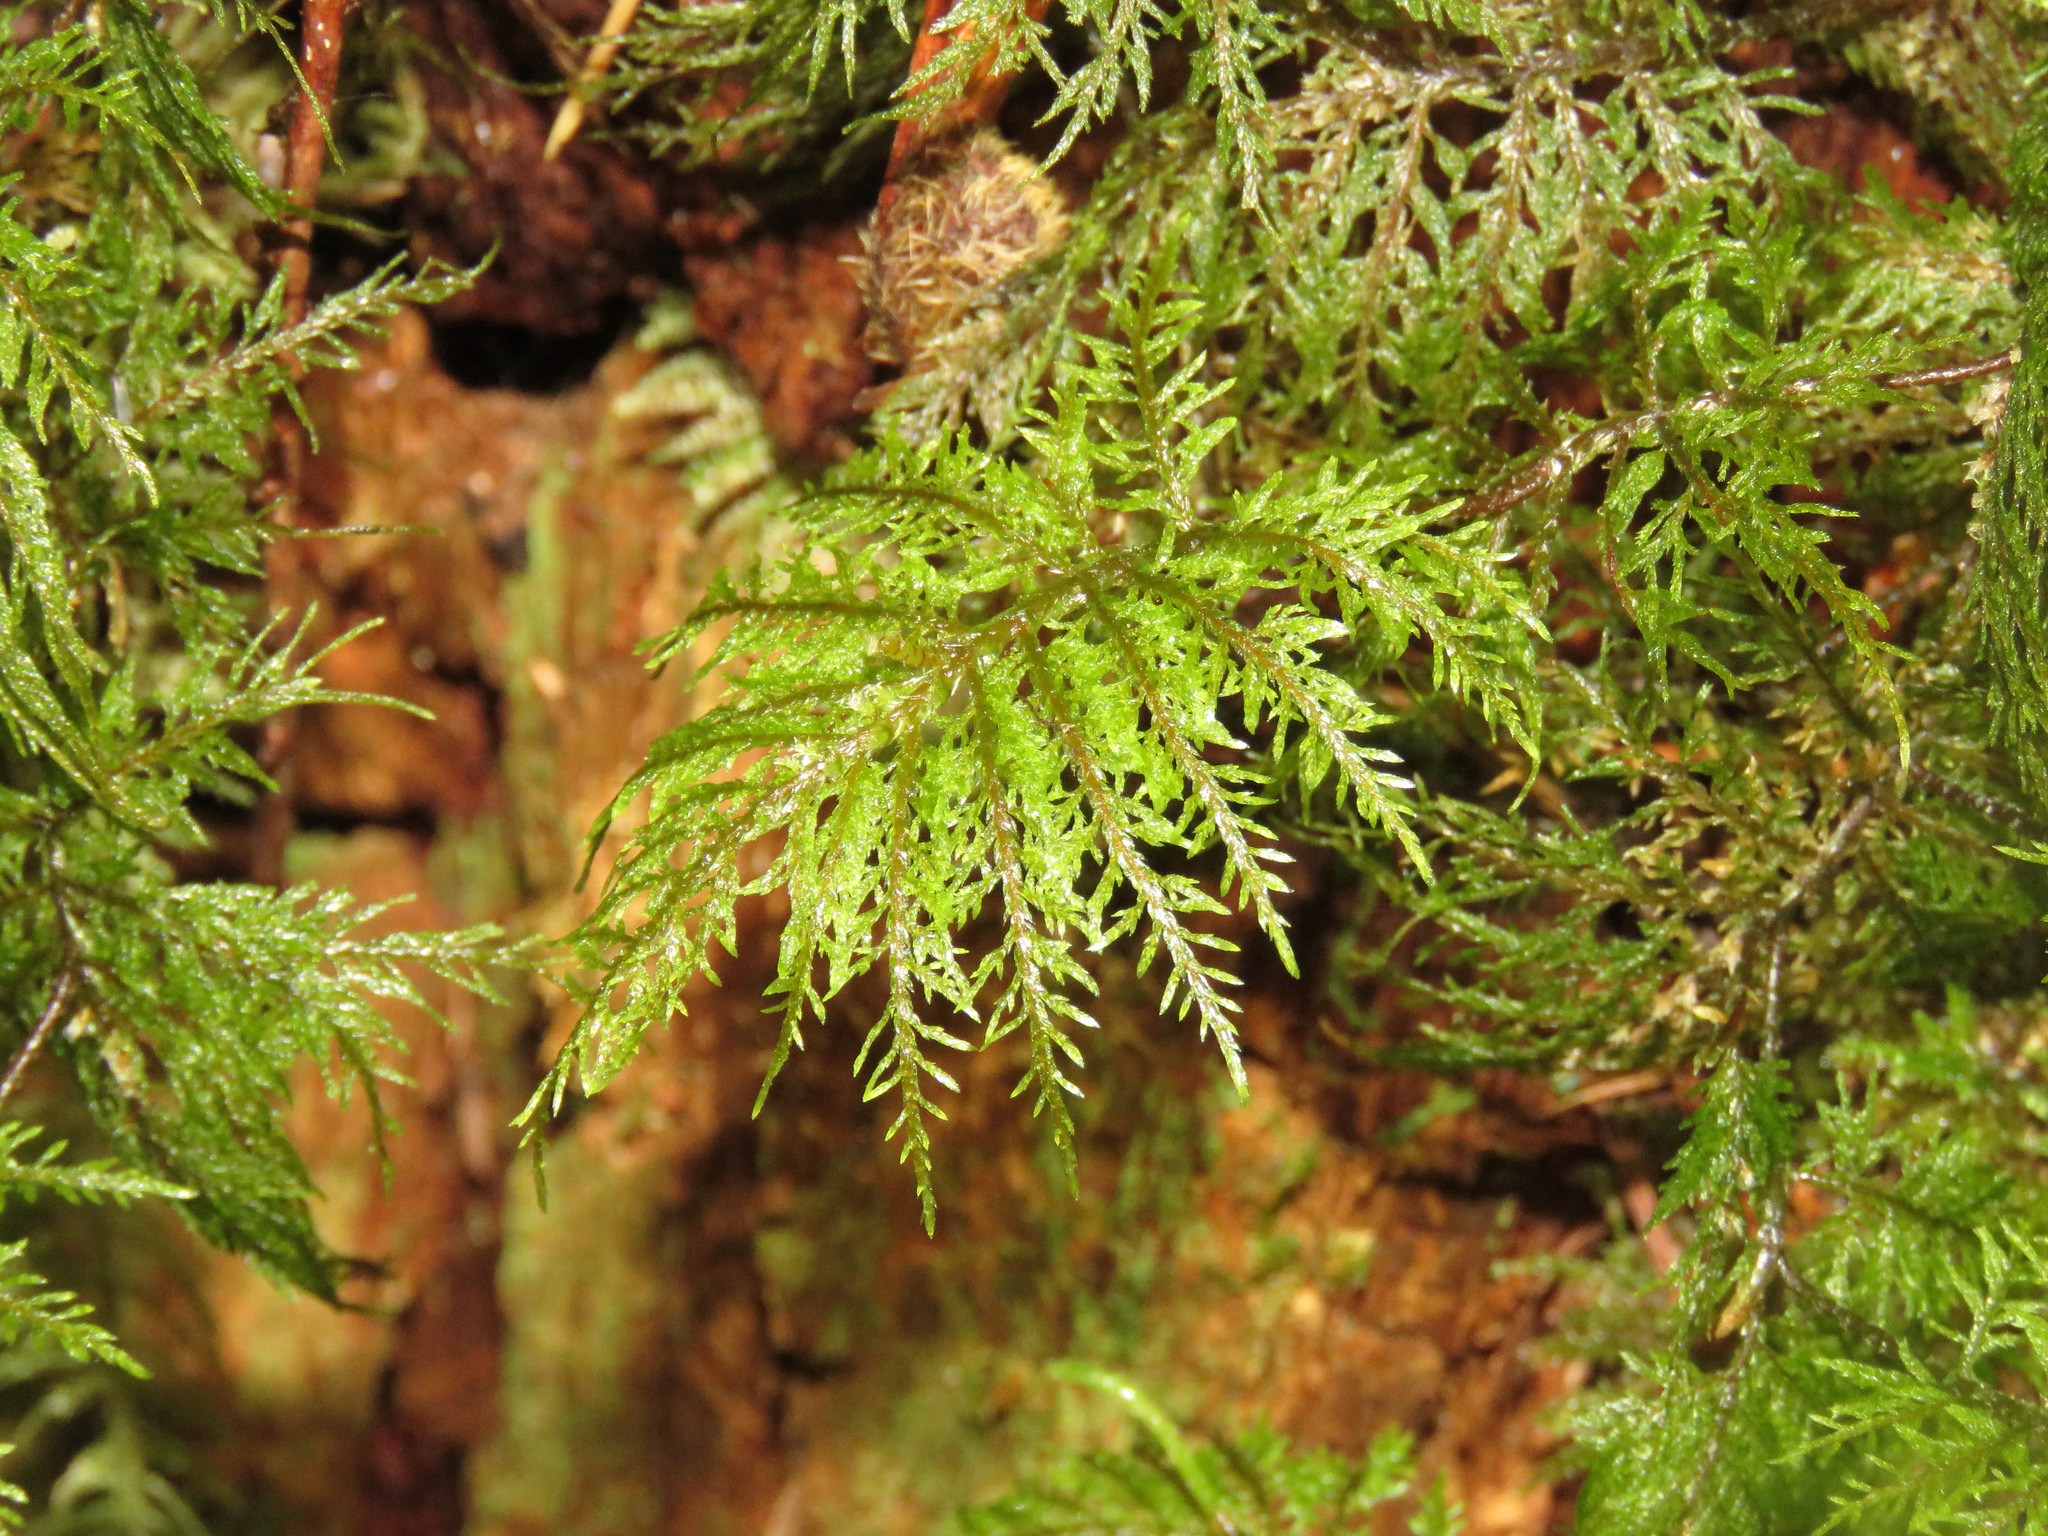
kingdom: Plantae
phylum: Bryophyta
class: Bryopsida
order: Hypnales
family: Hylocomiaceae
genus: Hylocomium
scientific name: Hylocomium splendens
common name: Stairstep moss
